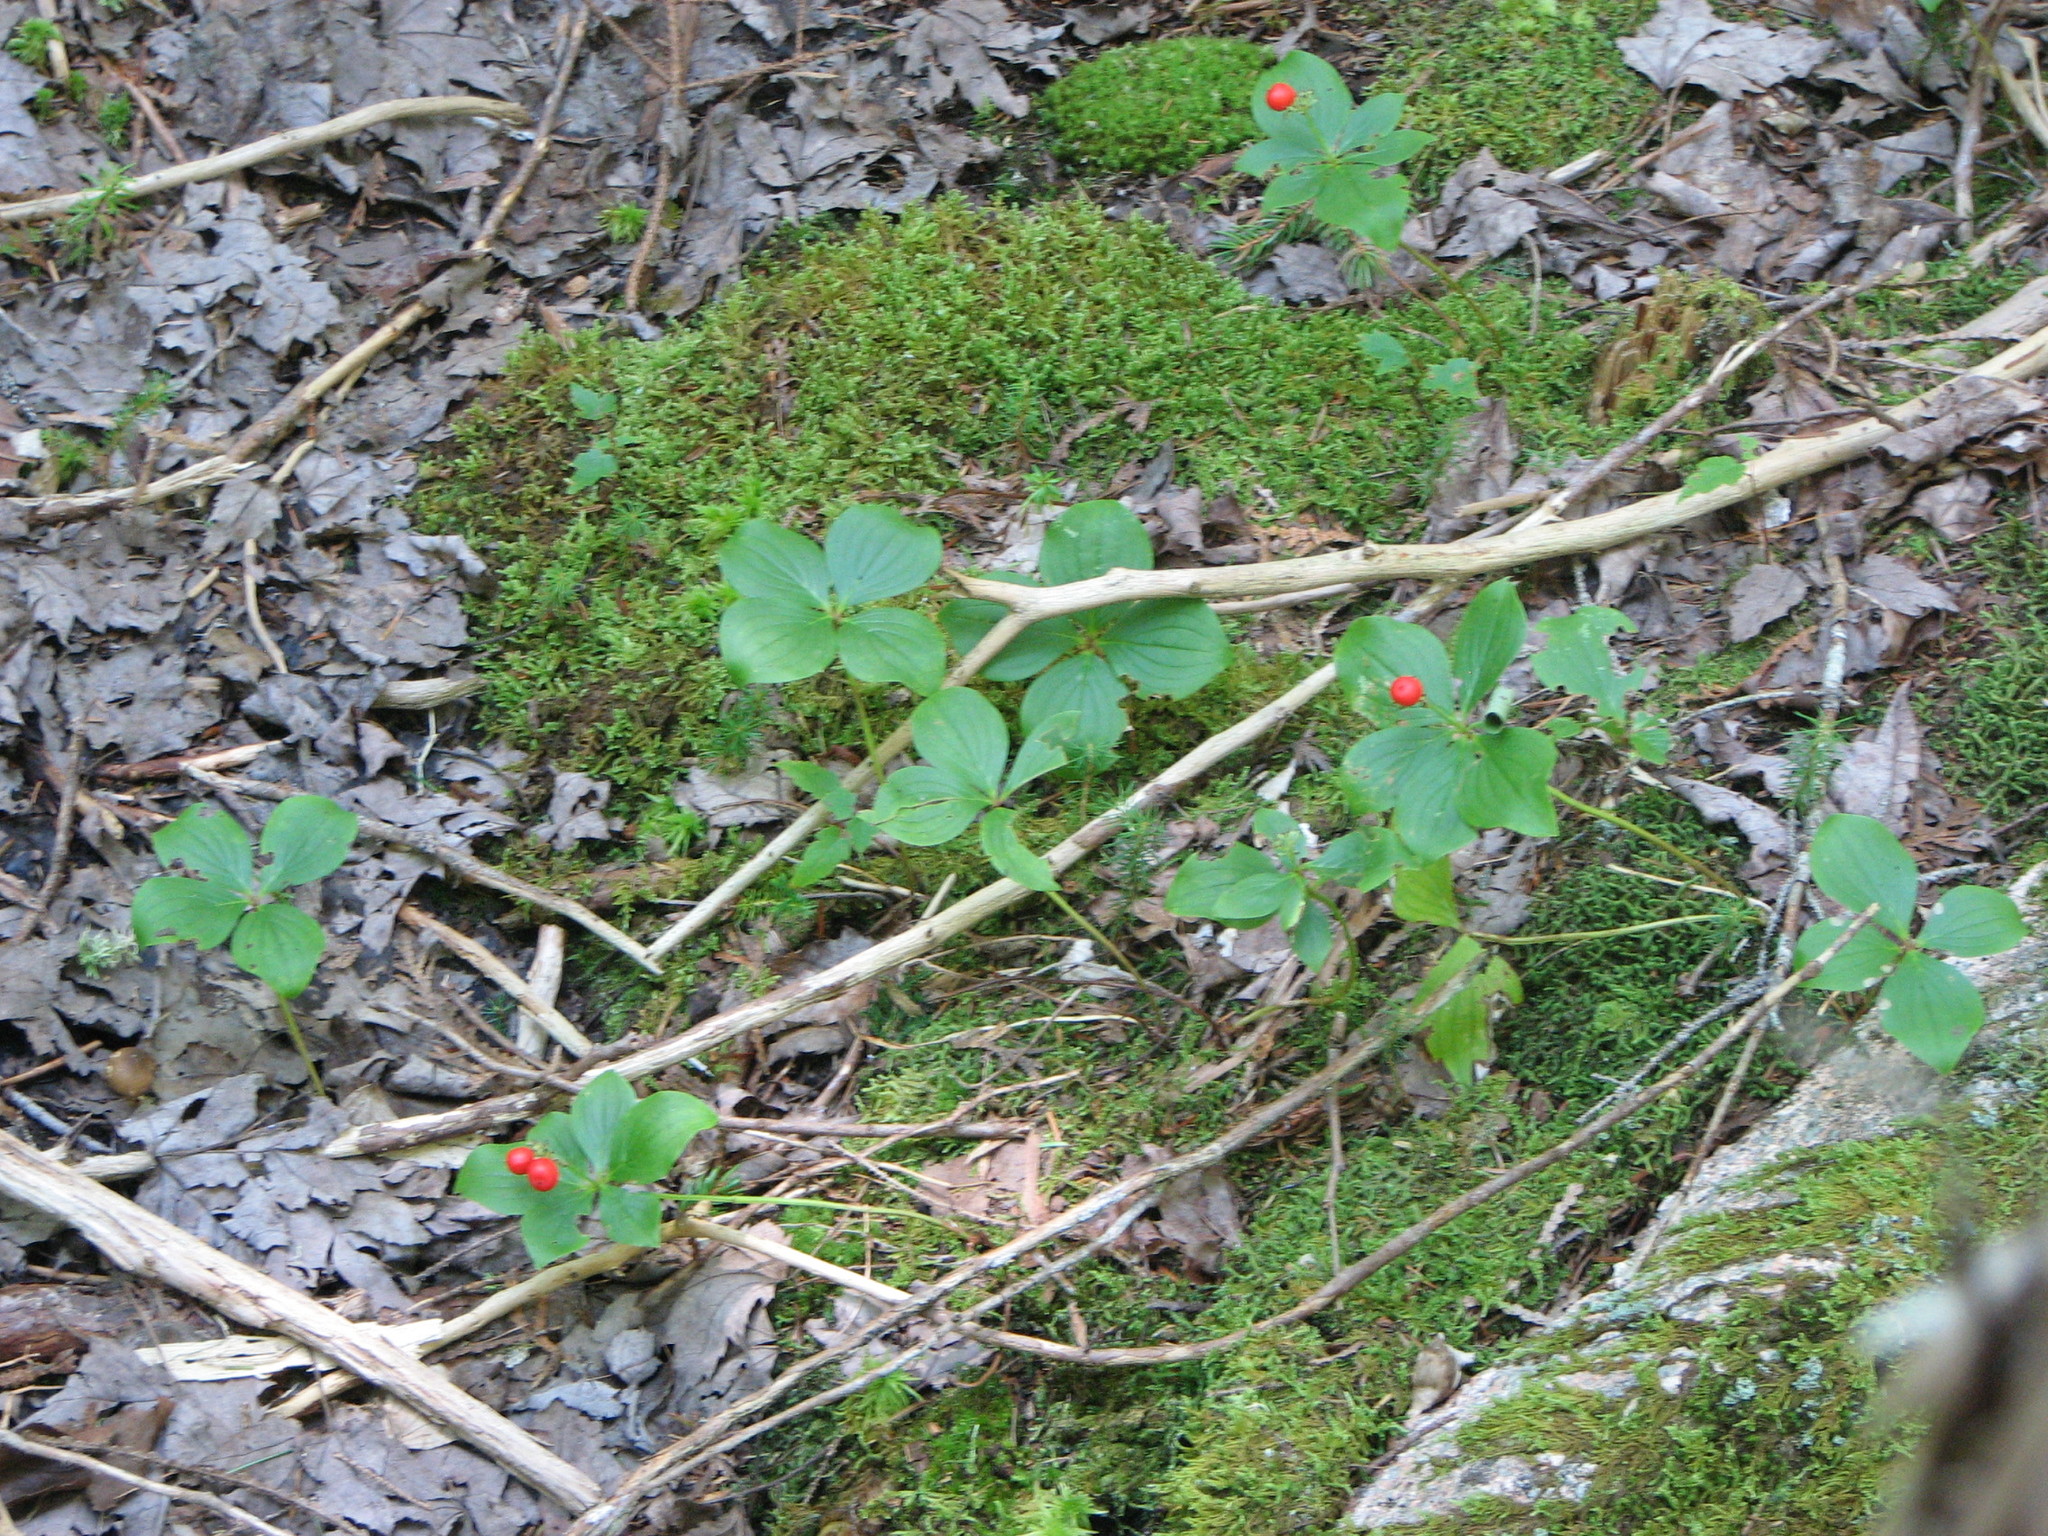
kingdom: Plantae
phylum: Tracheophyta
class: Magnoliopsida
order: Cornales
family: Cornaceae
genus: Cornus
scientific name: Cornus canadensis
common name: Creeping dogwood
